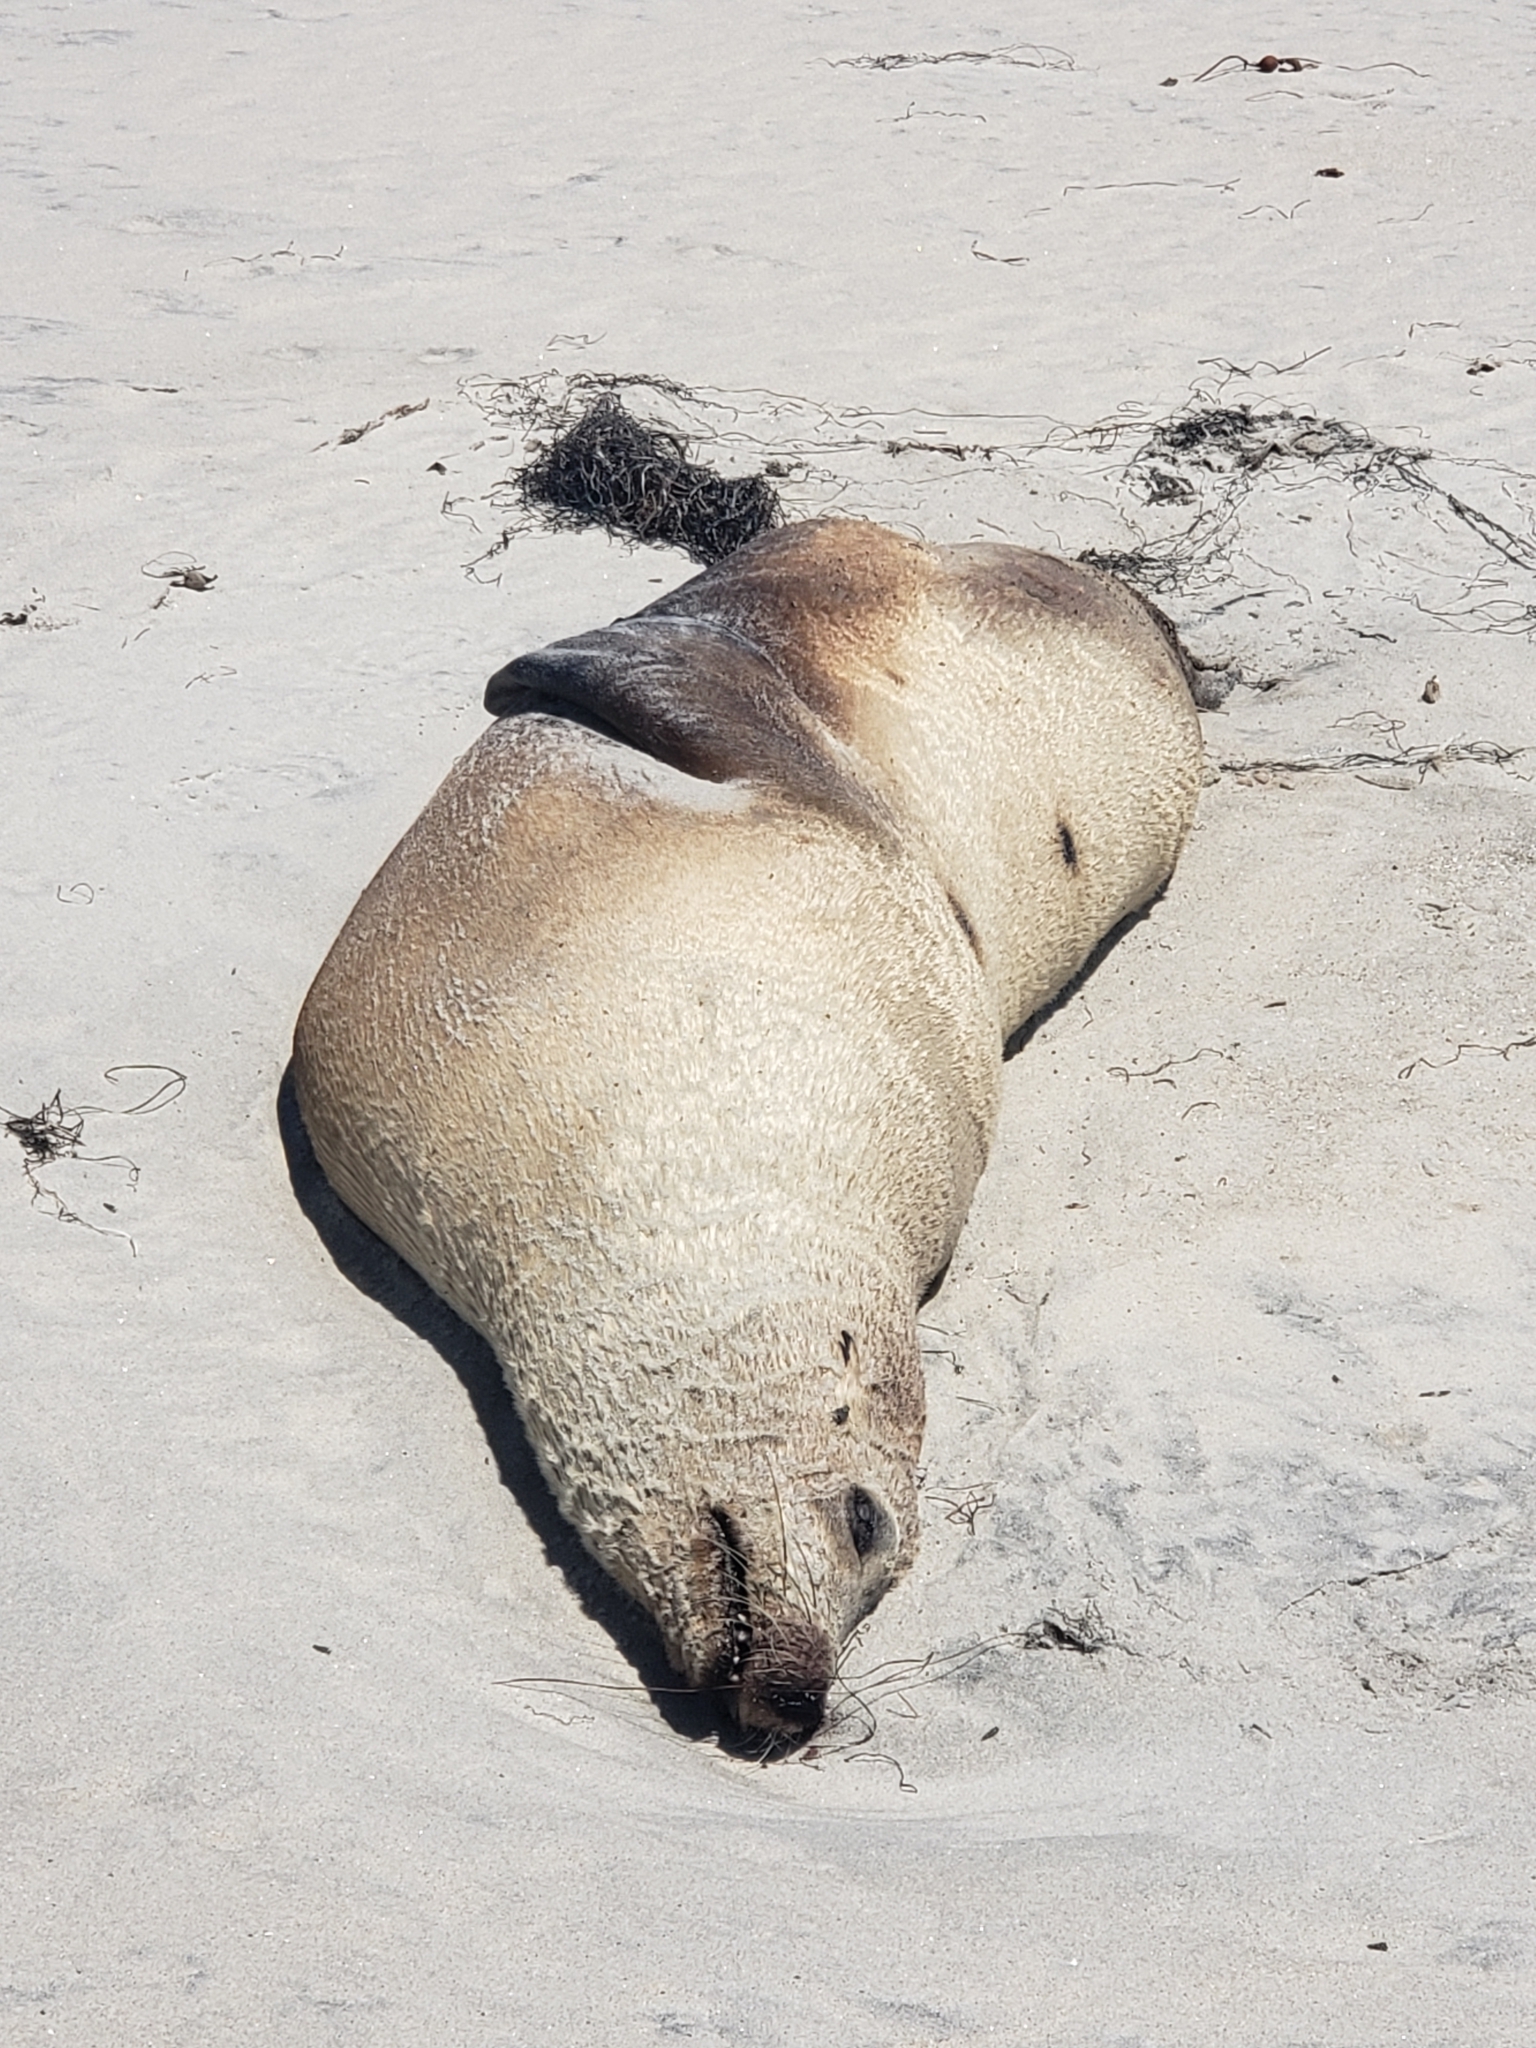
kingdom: Animalia
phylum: Chordata
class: Mammalia
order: Carnivora
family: Otariidae
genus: Zalophus
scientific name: Zalophus californianus
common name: California sea lion
